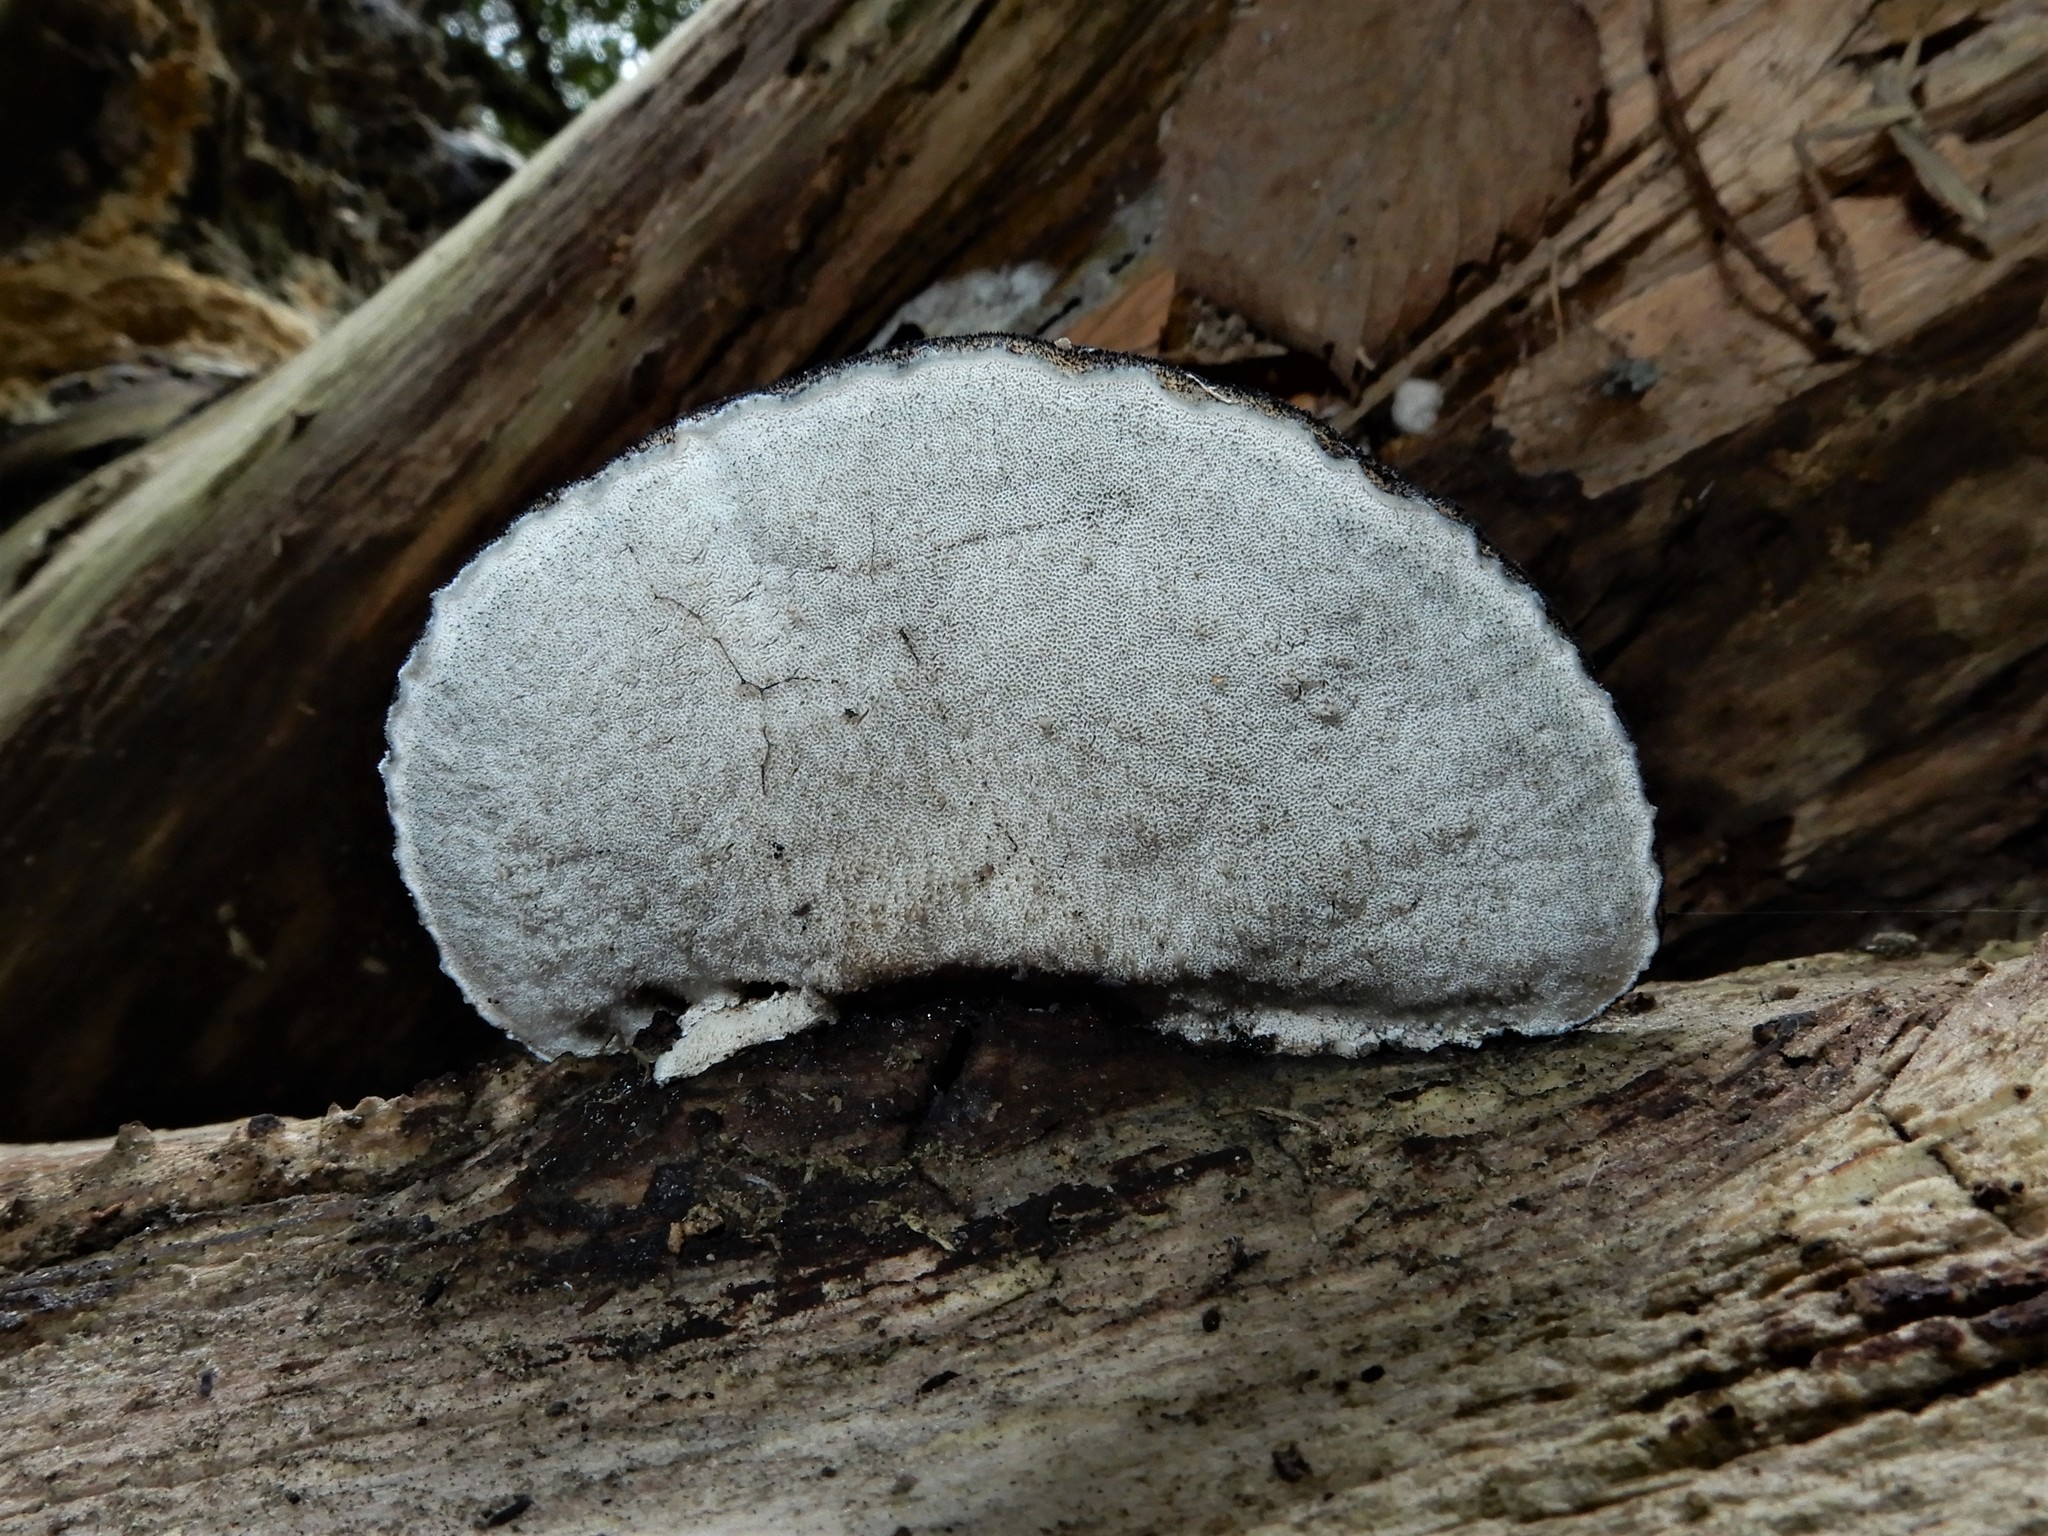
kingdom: Fungi
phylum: Basidiomycota
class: Agaricomycetes
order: Polyporales
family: Incrustoporiaceae
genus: Tyromyces
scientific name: Tyromyces atrostrigosus
